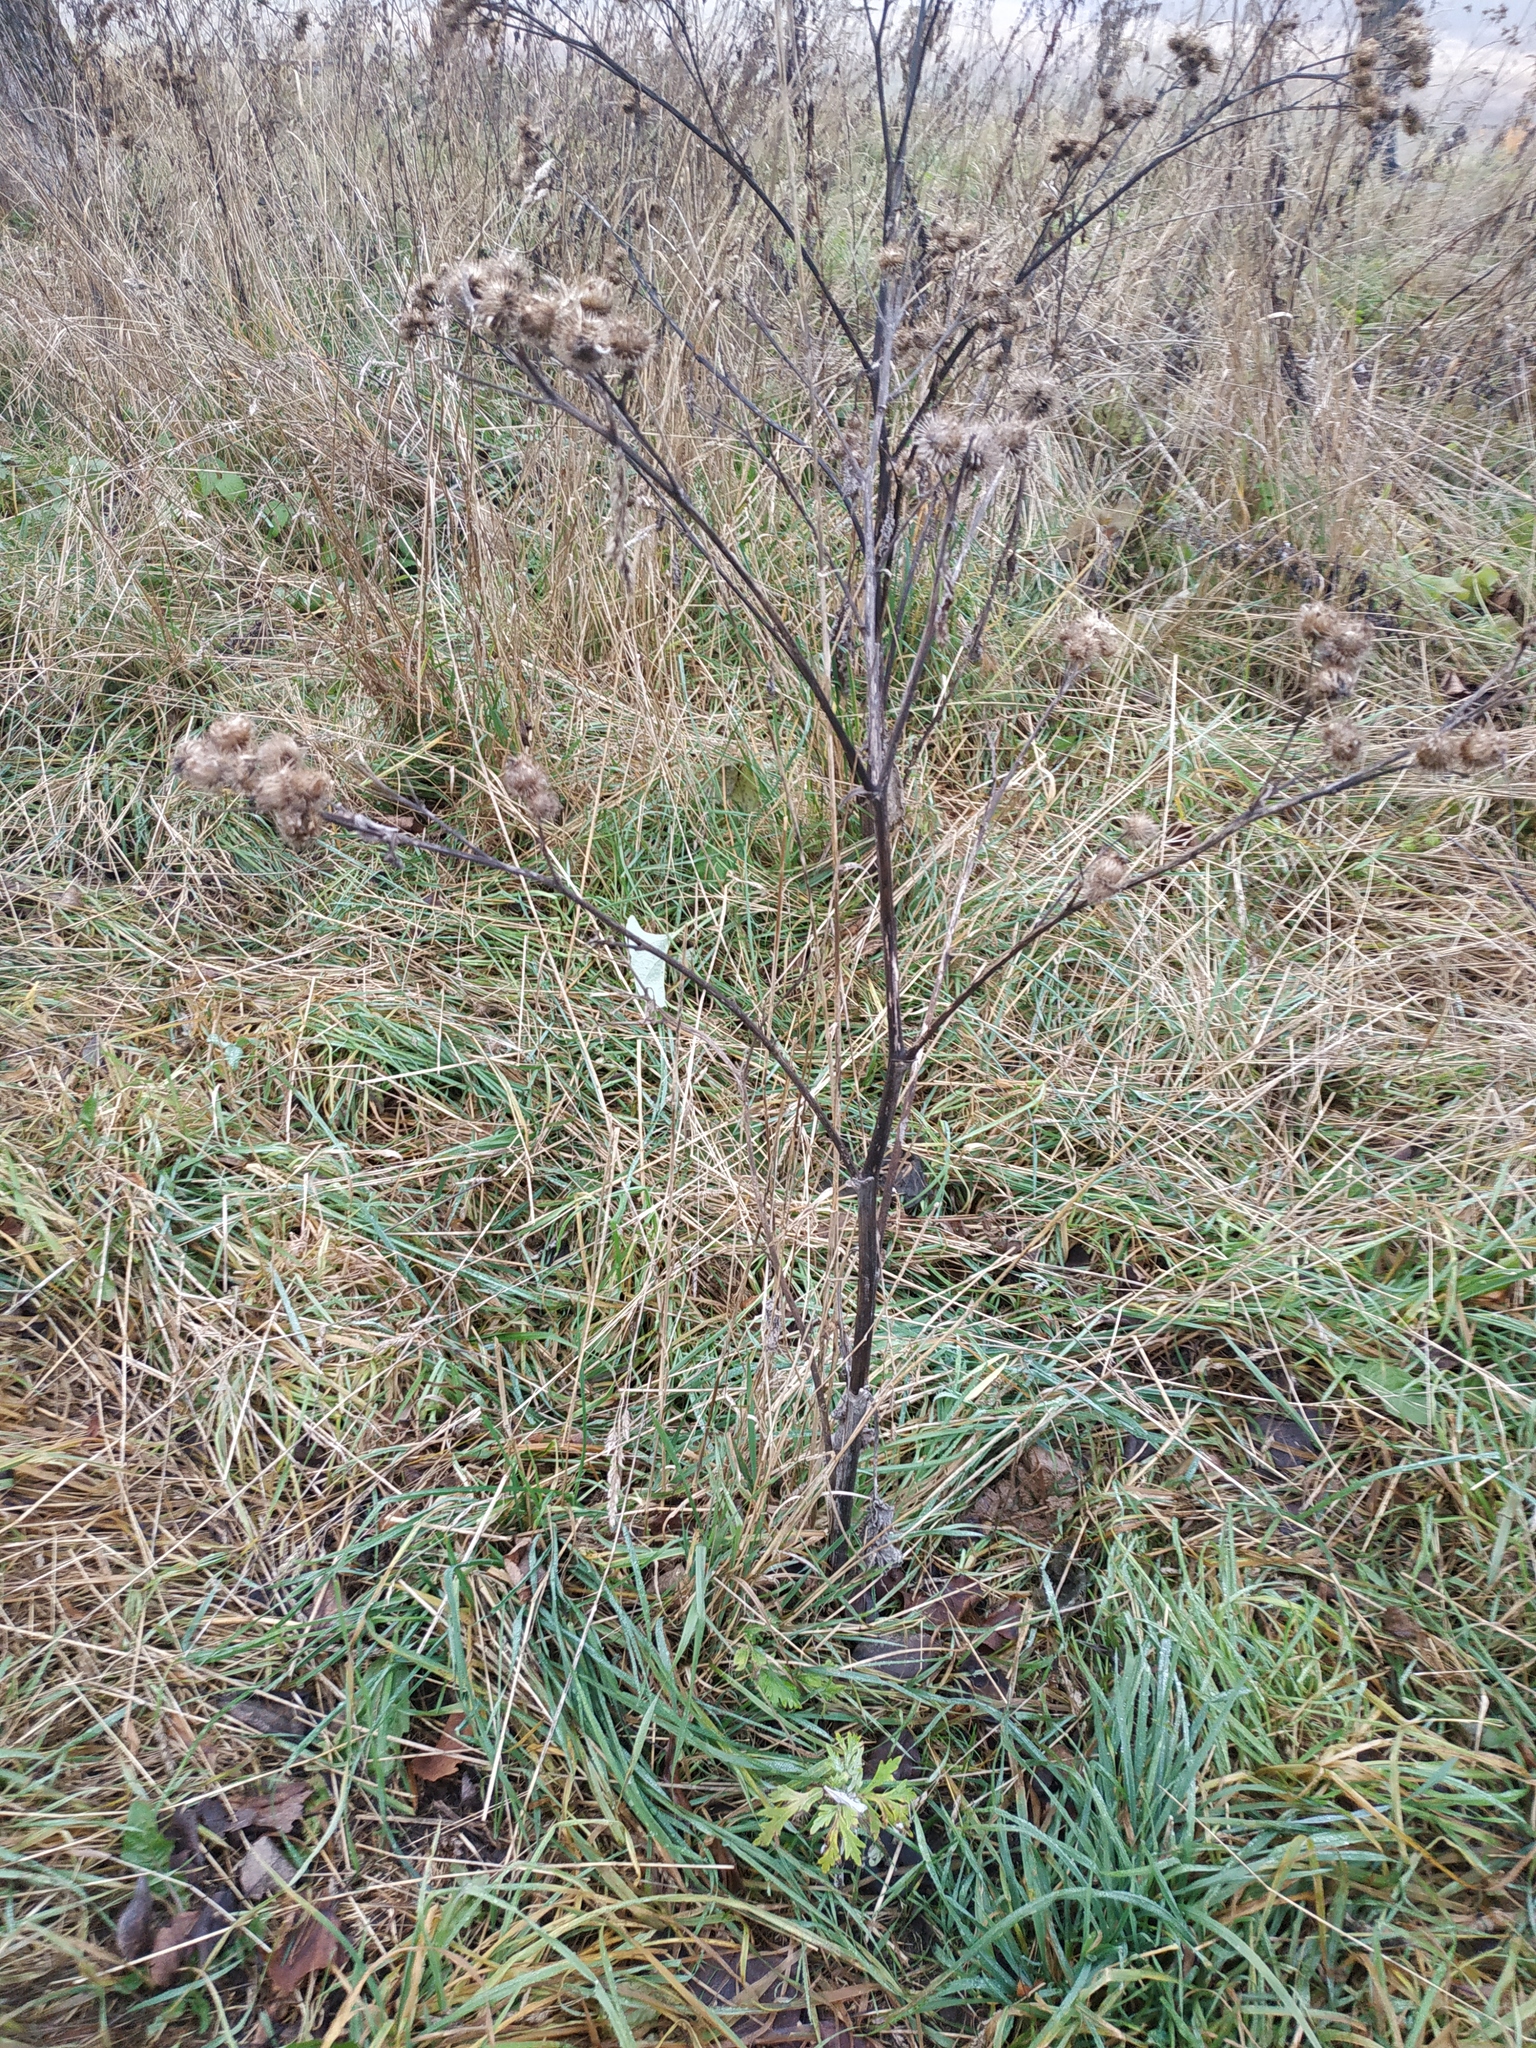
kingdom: Plantae
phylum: Tracheophyta
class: Magnoliopsida
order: Asterales
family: Asteraceae
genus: Arctium
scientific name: Arctium tomentosum
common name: Woolly burdock
